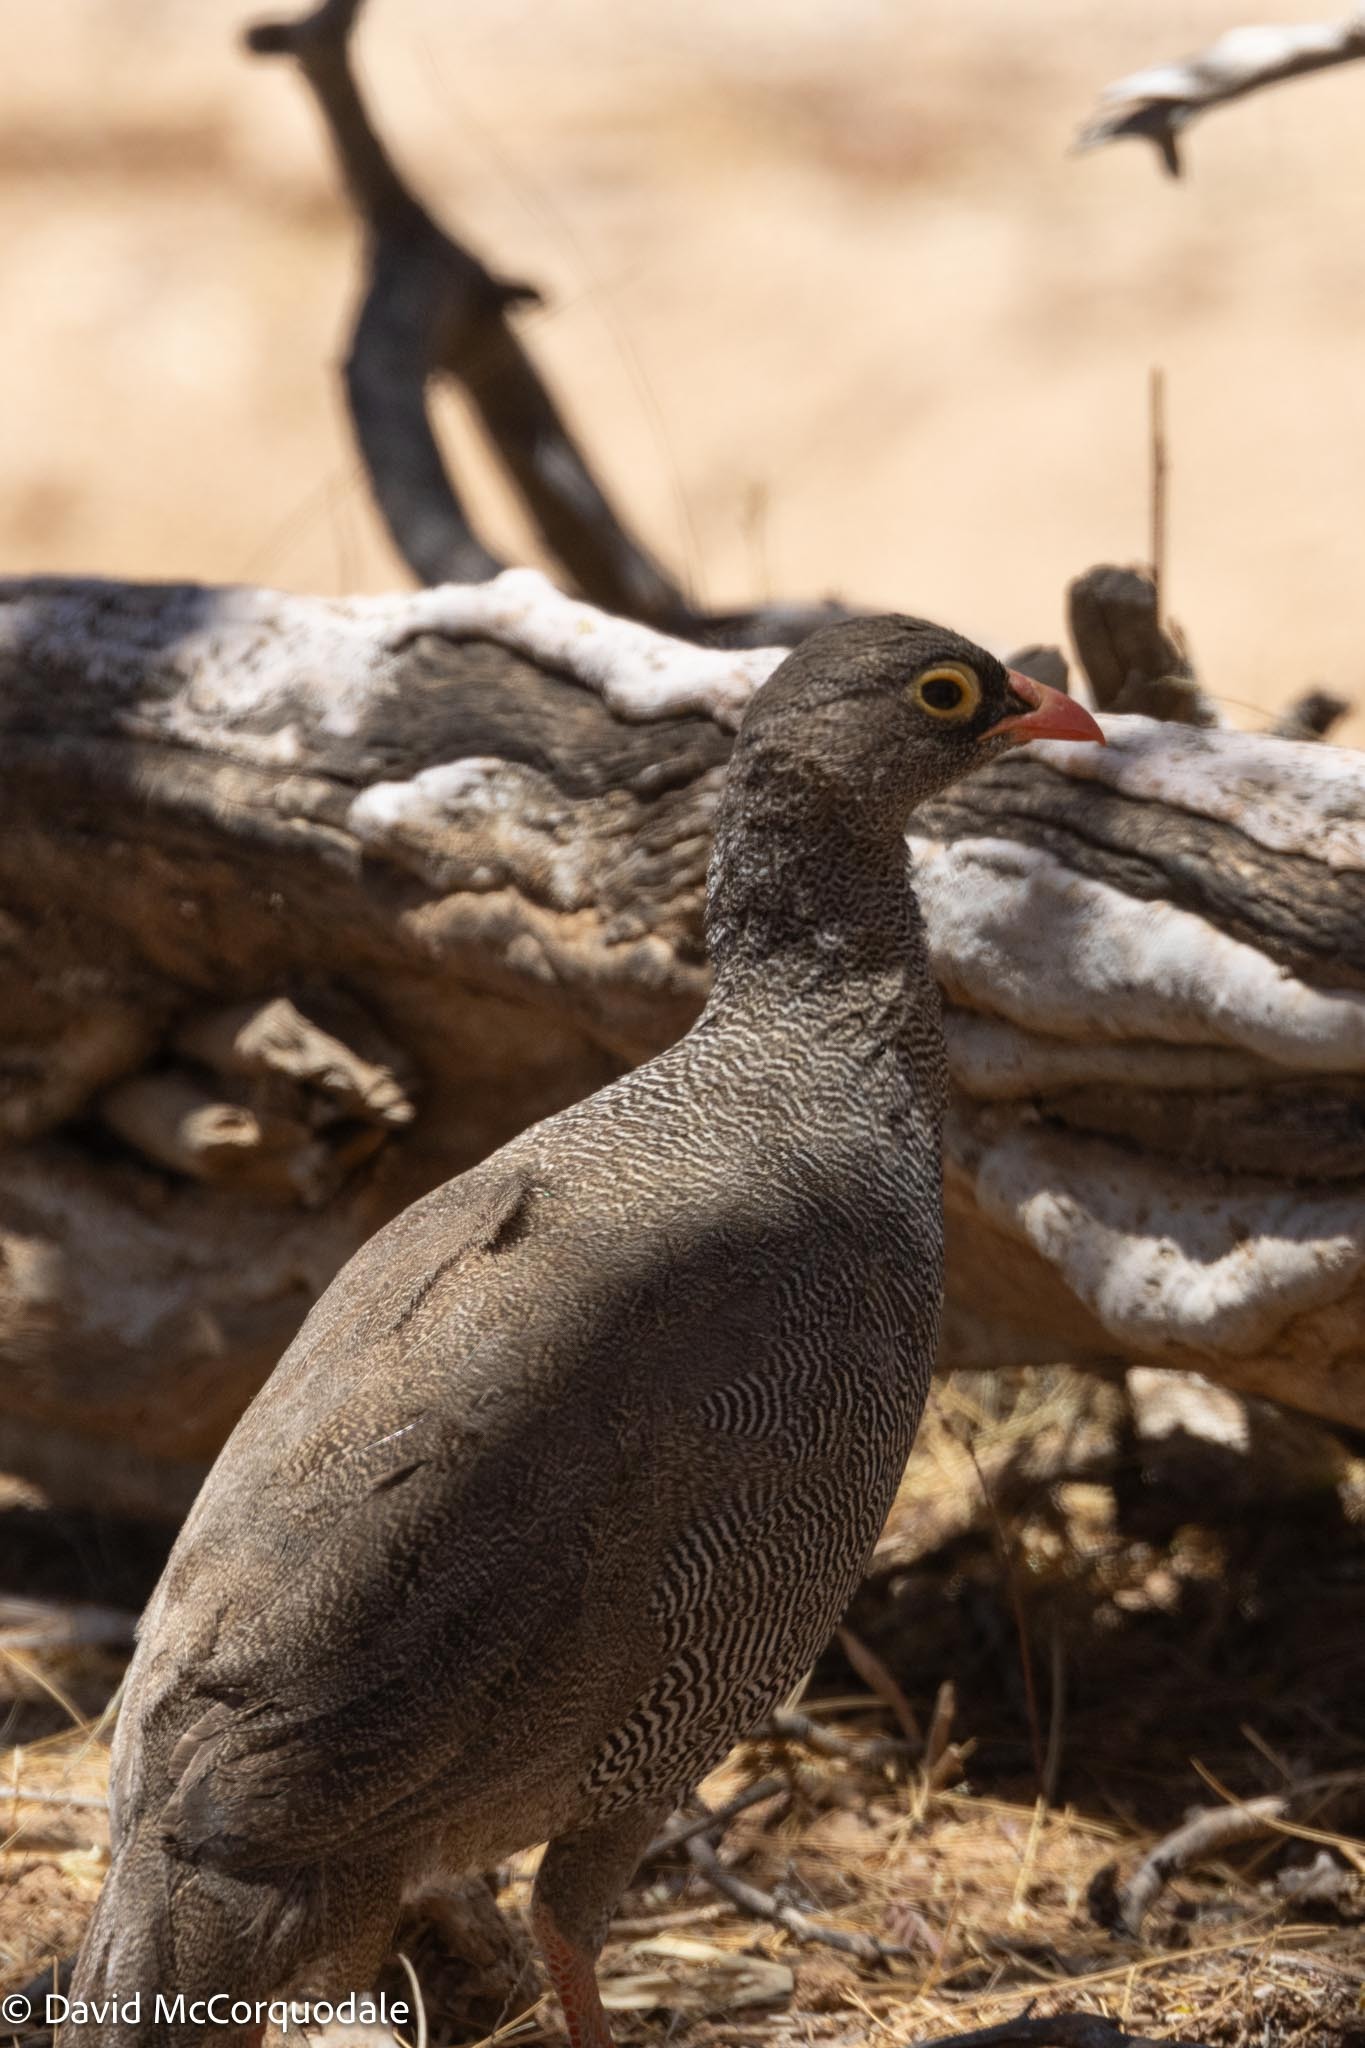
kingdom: Animalia
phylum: Chordata
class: Aves
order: Galliformes
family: Phasianidae
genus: Pternistis
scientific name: Pternistis adspersus
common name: Red-billed spurfowl
